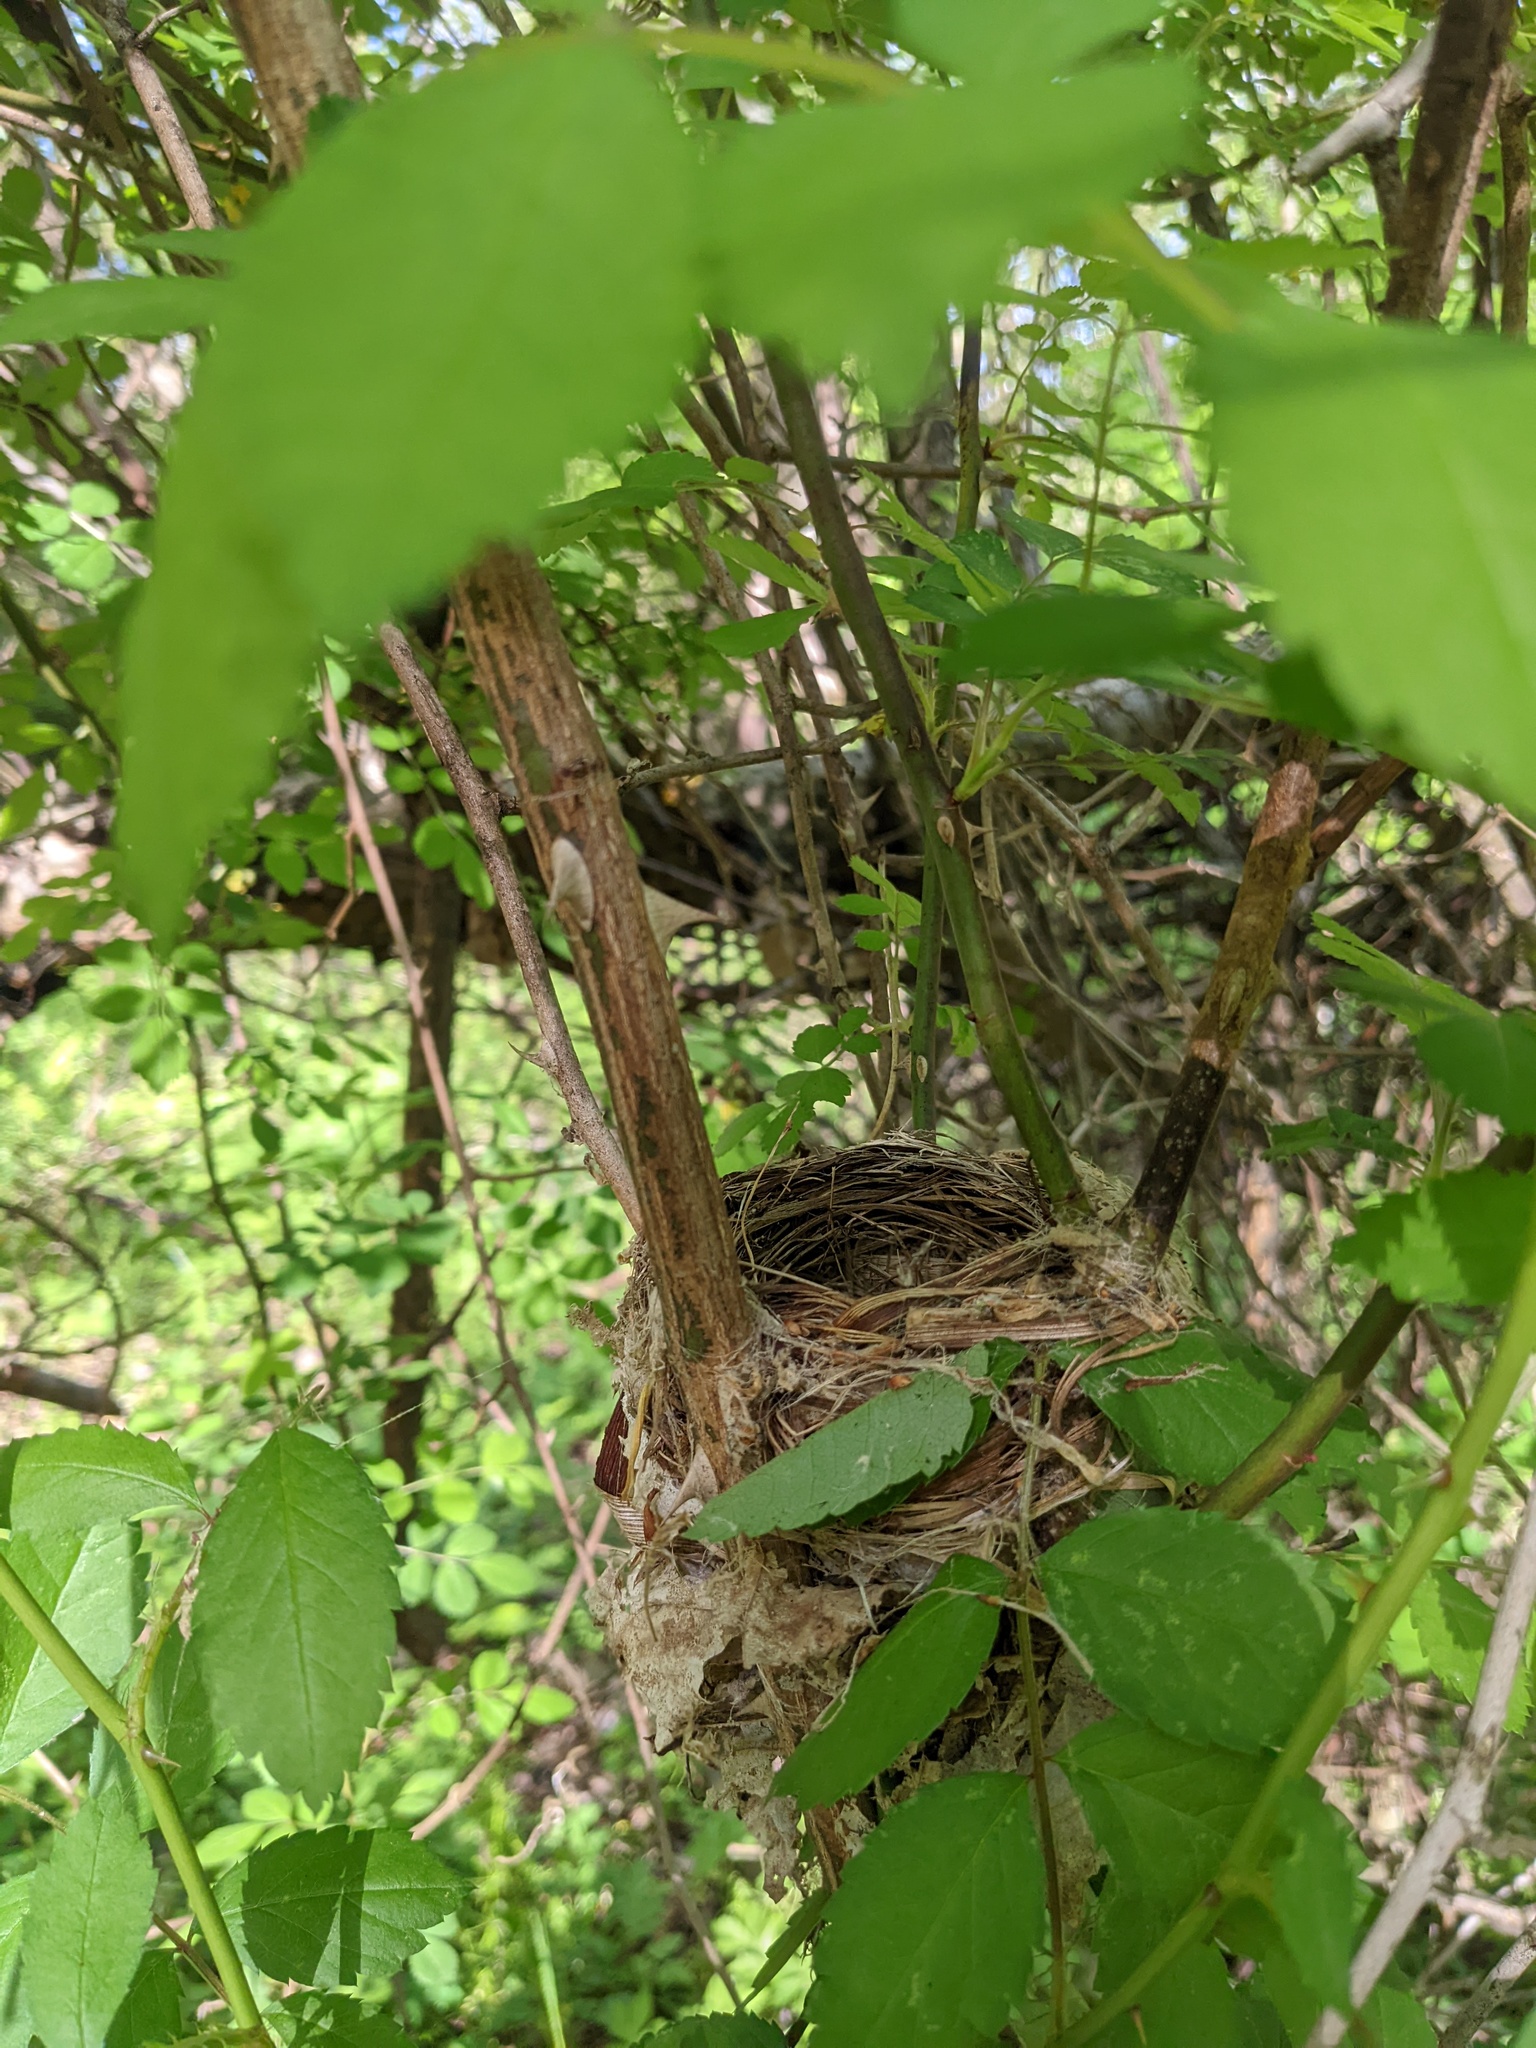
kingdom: Animalia
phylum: Chordata
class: Aves
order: Passeriformes
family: Parulidae
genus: Setophaga
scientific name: Setophaga citrina
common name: Hooded warbler
